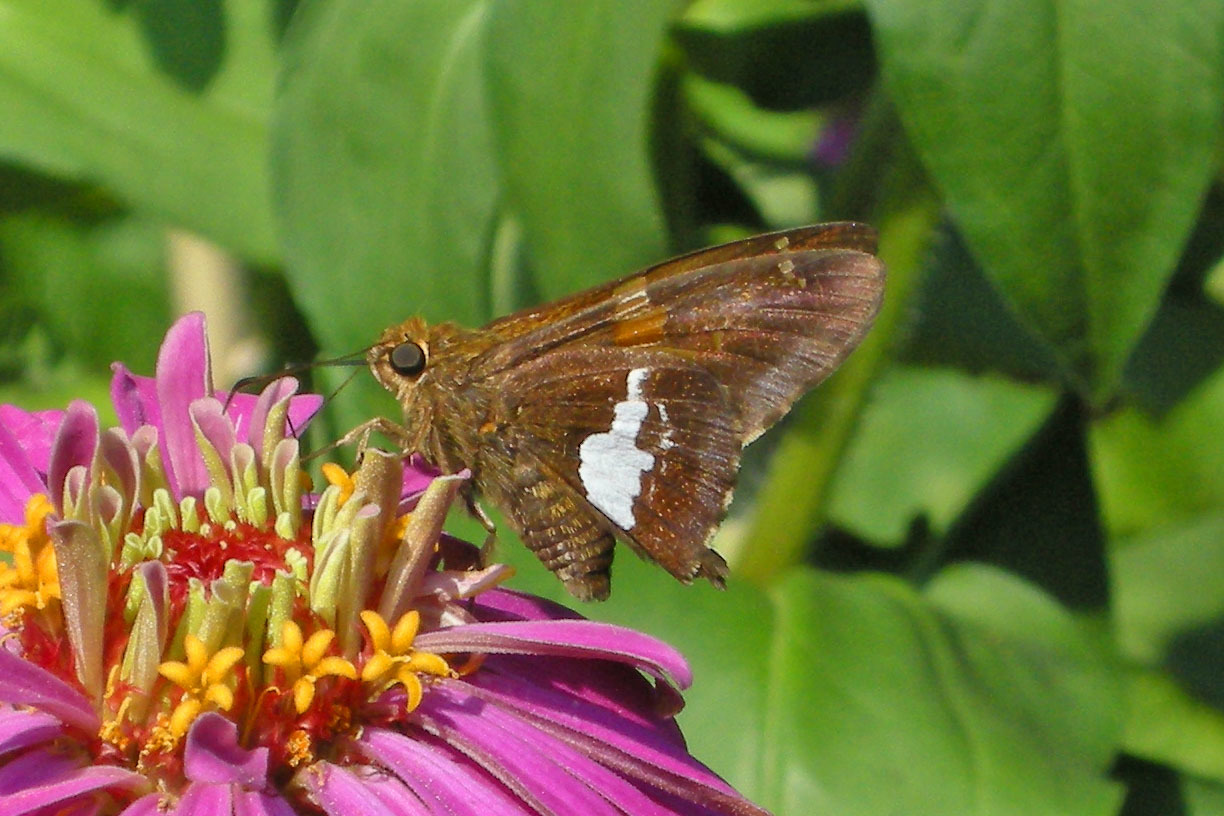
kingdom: Animalia
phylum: Arthropoda
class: Insecta
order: Lepidoptera
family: Hesperiidae
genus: Epargyreus
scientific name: Epargyreus clarus
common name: Silver-spotted skipper
